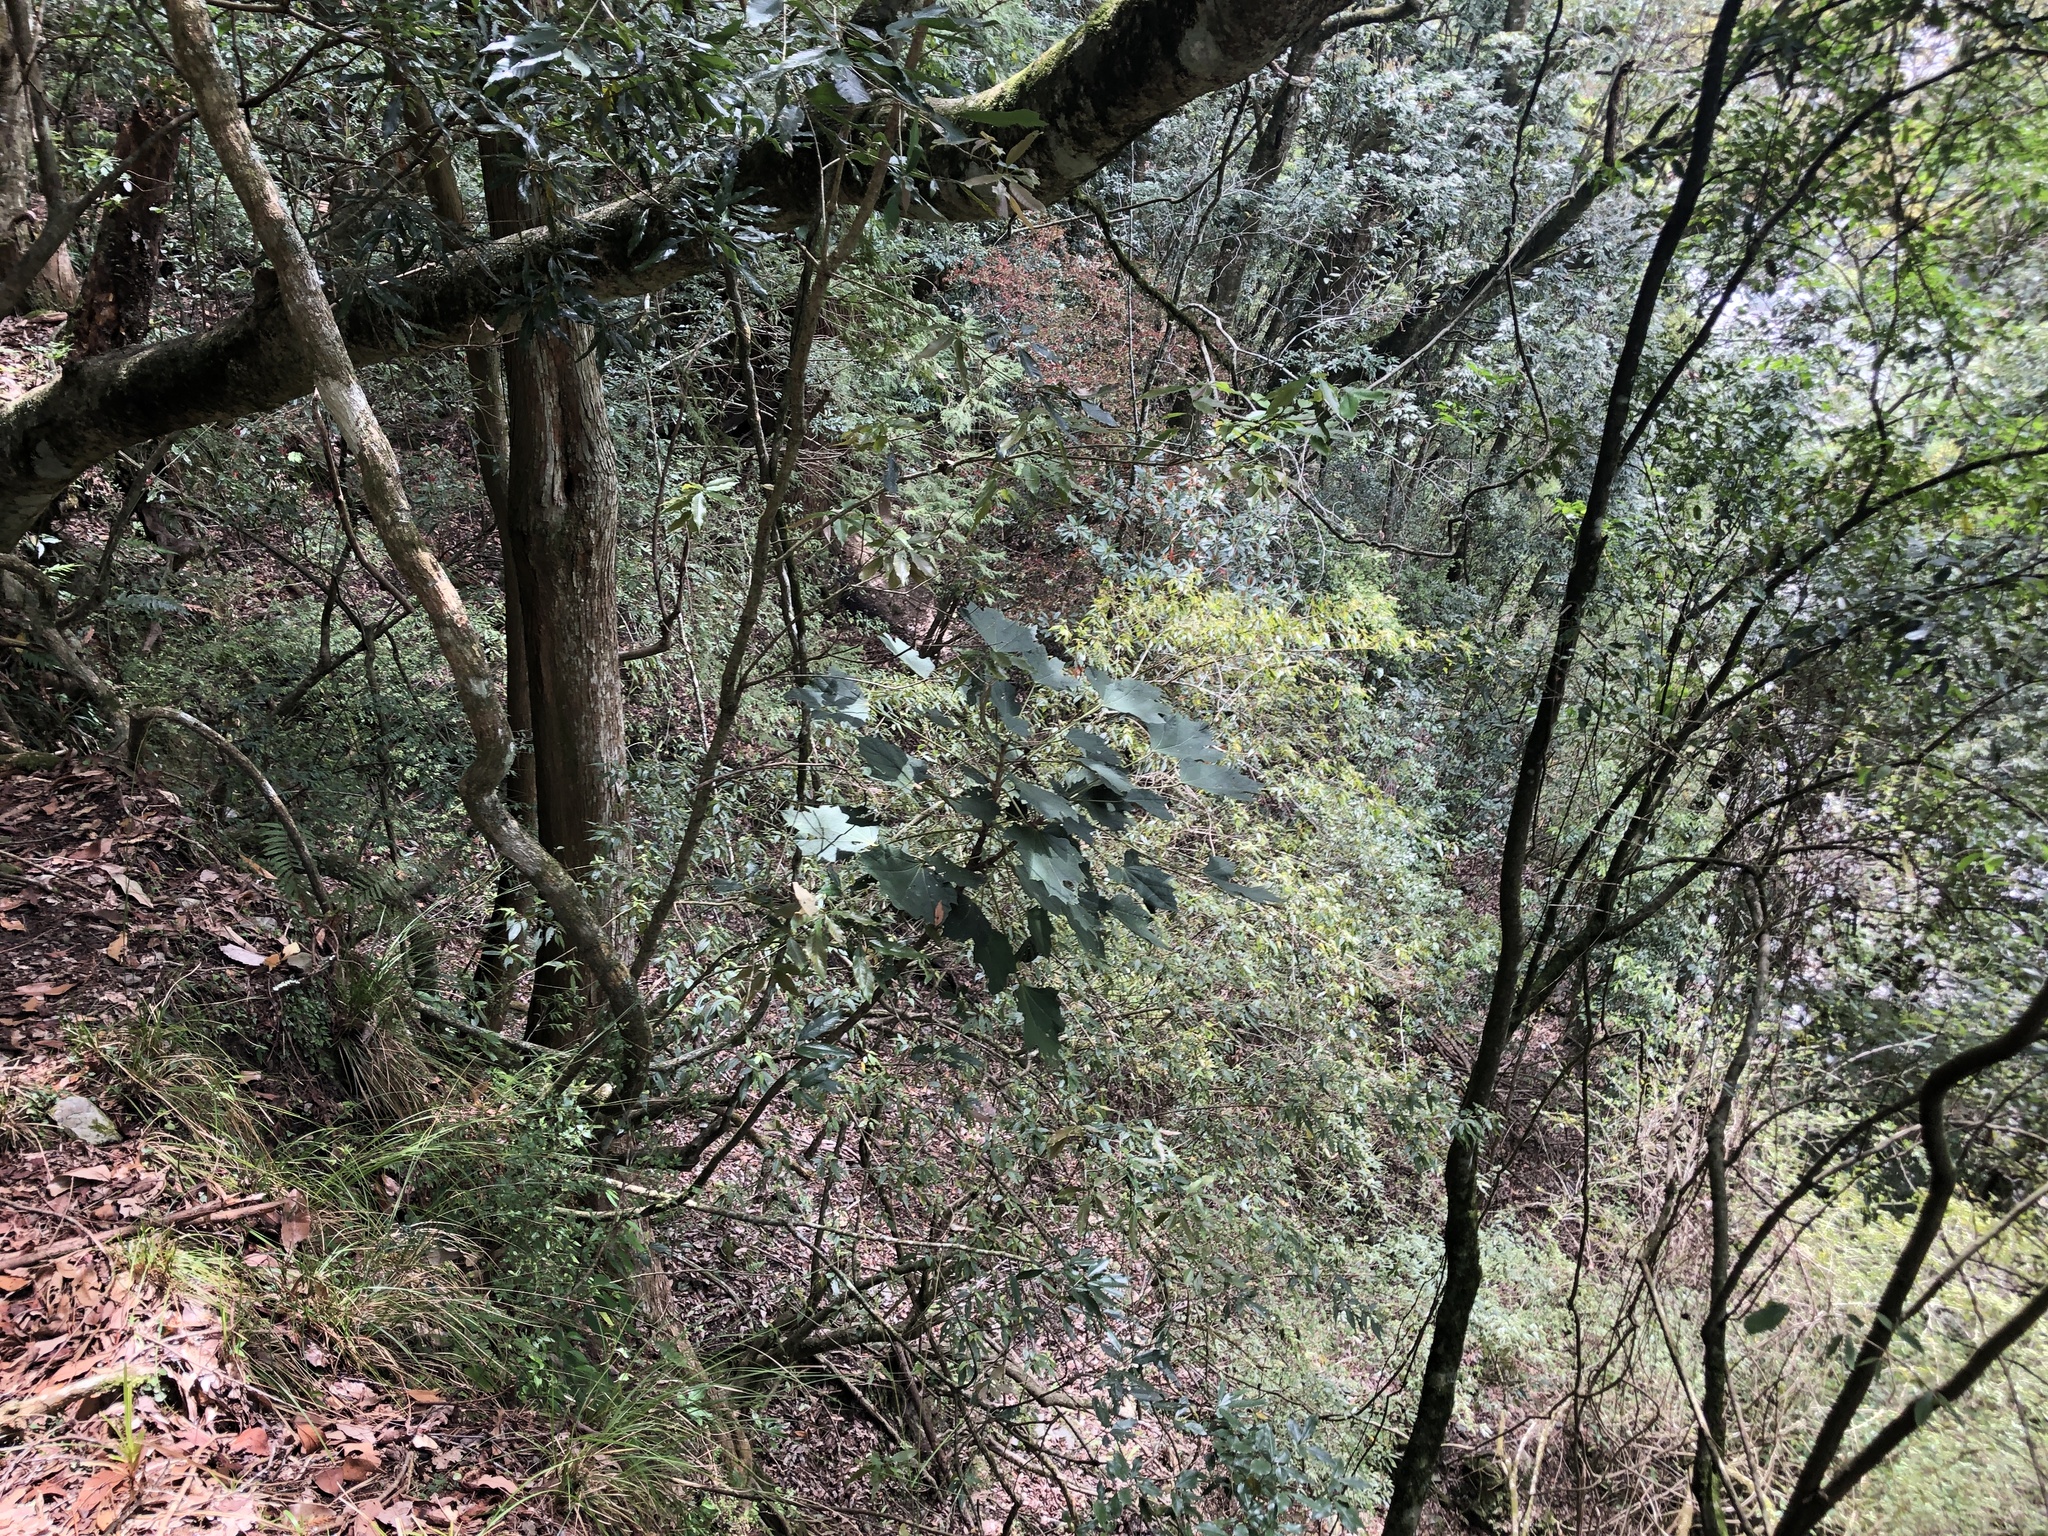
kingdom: Plantae
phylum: Tracheophyta
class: Magnoliopsida
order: Apiales
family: Araliaceae
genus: Sinopanax
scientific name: Sinopanax formosanus
